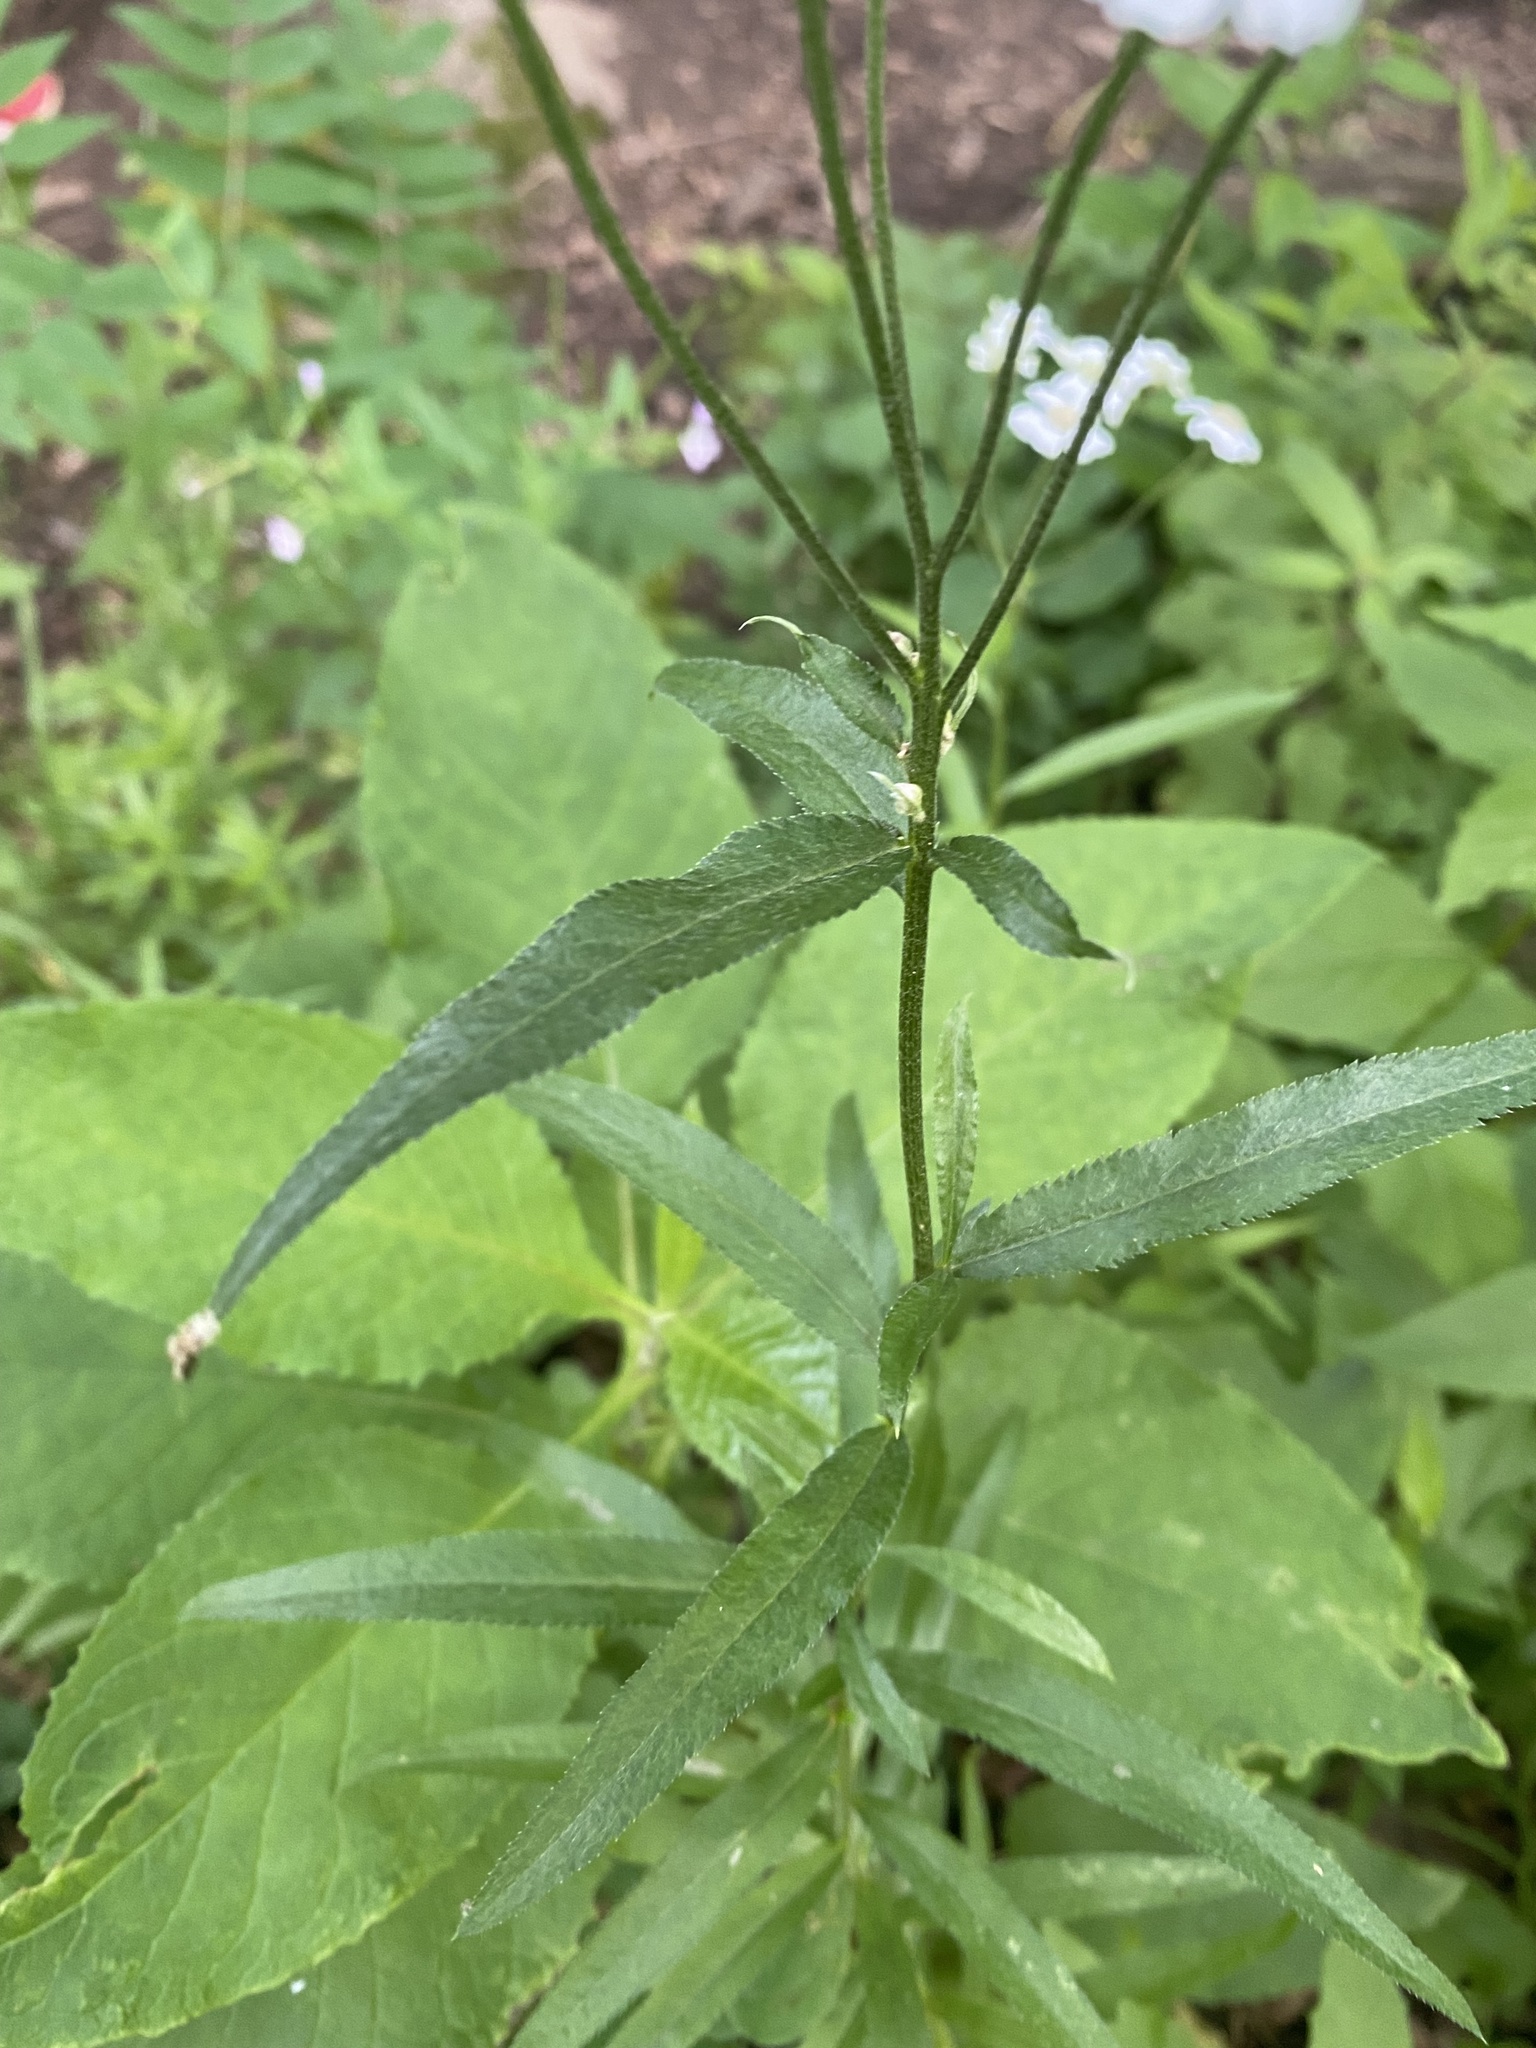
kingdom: Plantae
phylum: Tracheophyta
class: Magnoliopsida
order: Asterales
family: Asteraceae
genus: Achillea
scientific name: Achillea biserrata
